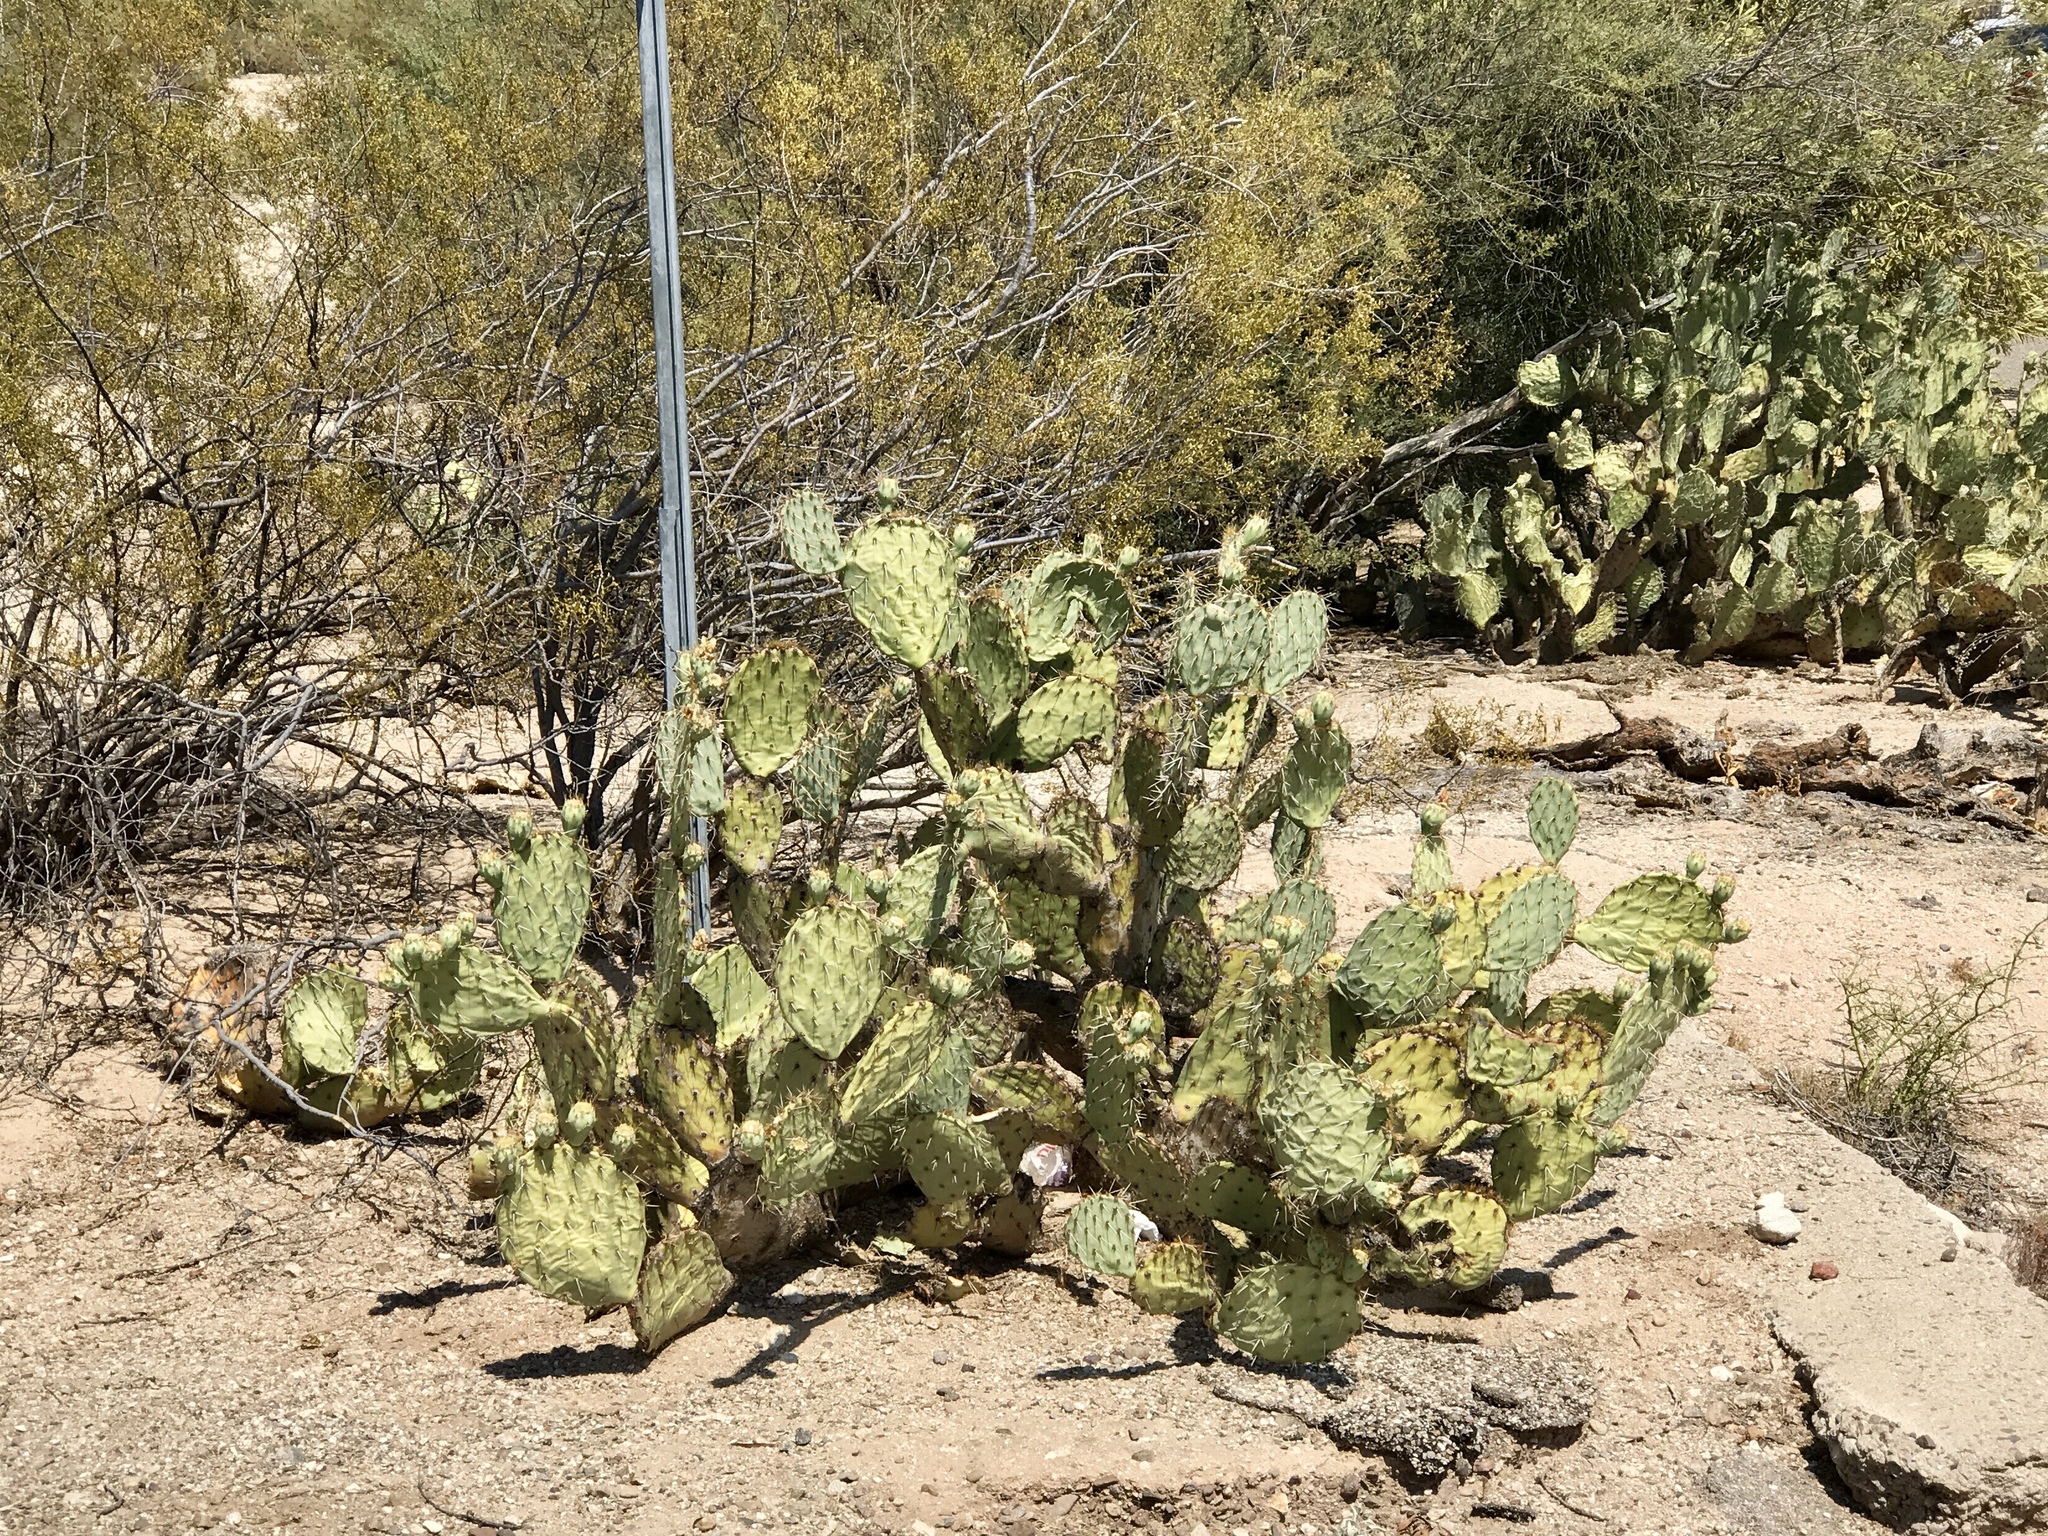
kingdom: Plantae
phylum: Tracheophyta
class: Magnoliopsida
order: Caryophyllales
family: Cactaceae
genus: Opuntia
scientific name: Opuntia engelmannii
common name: Cactus-apple
